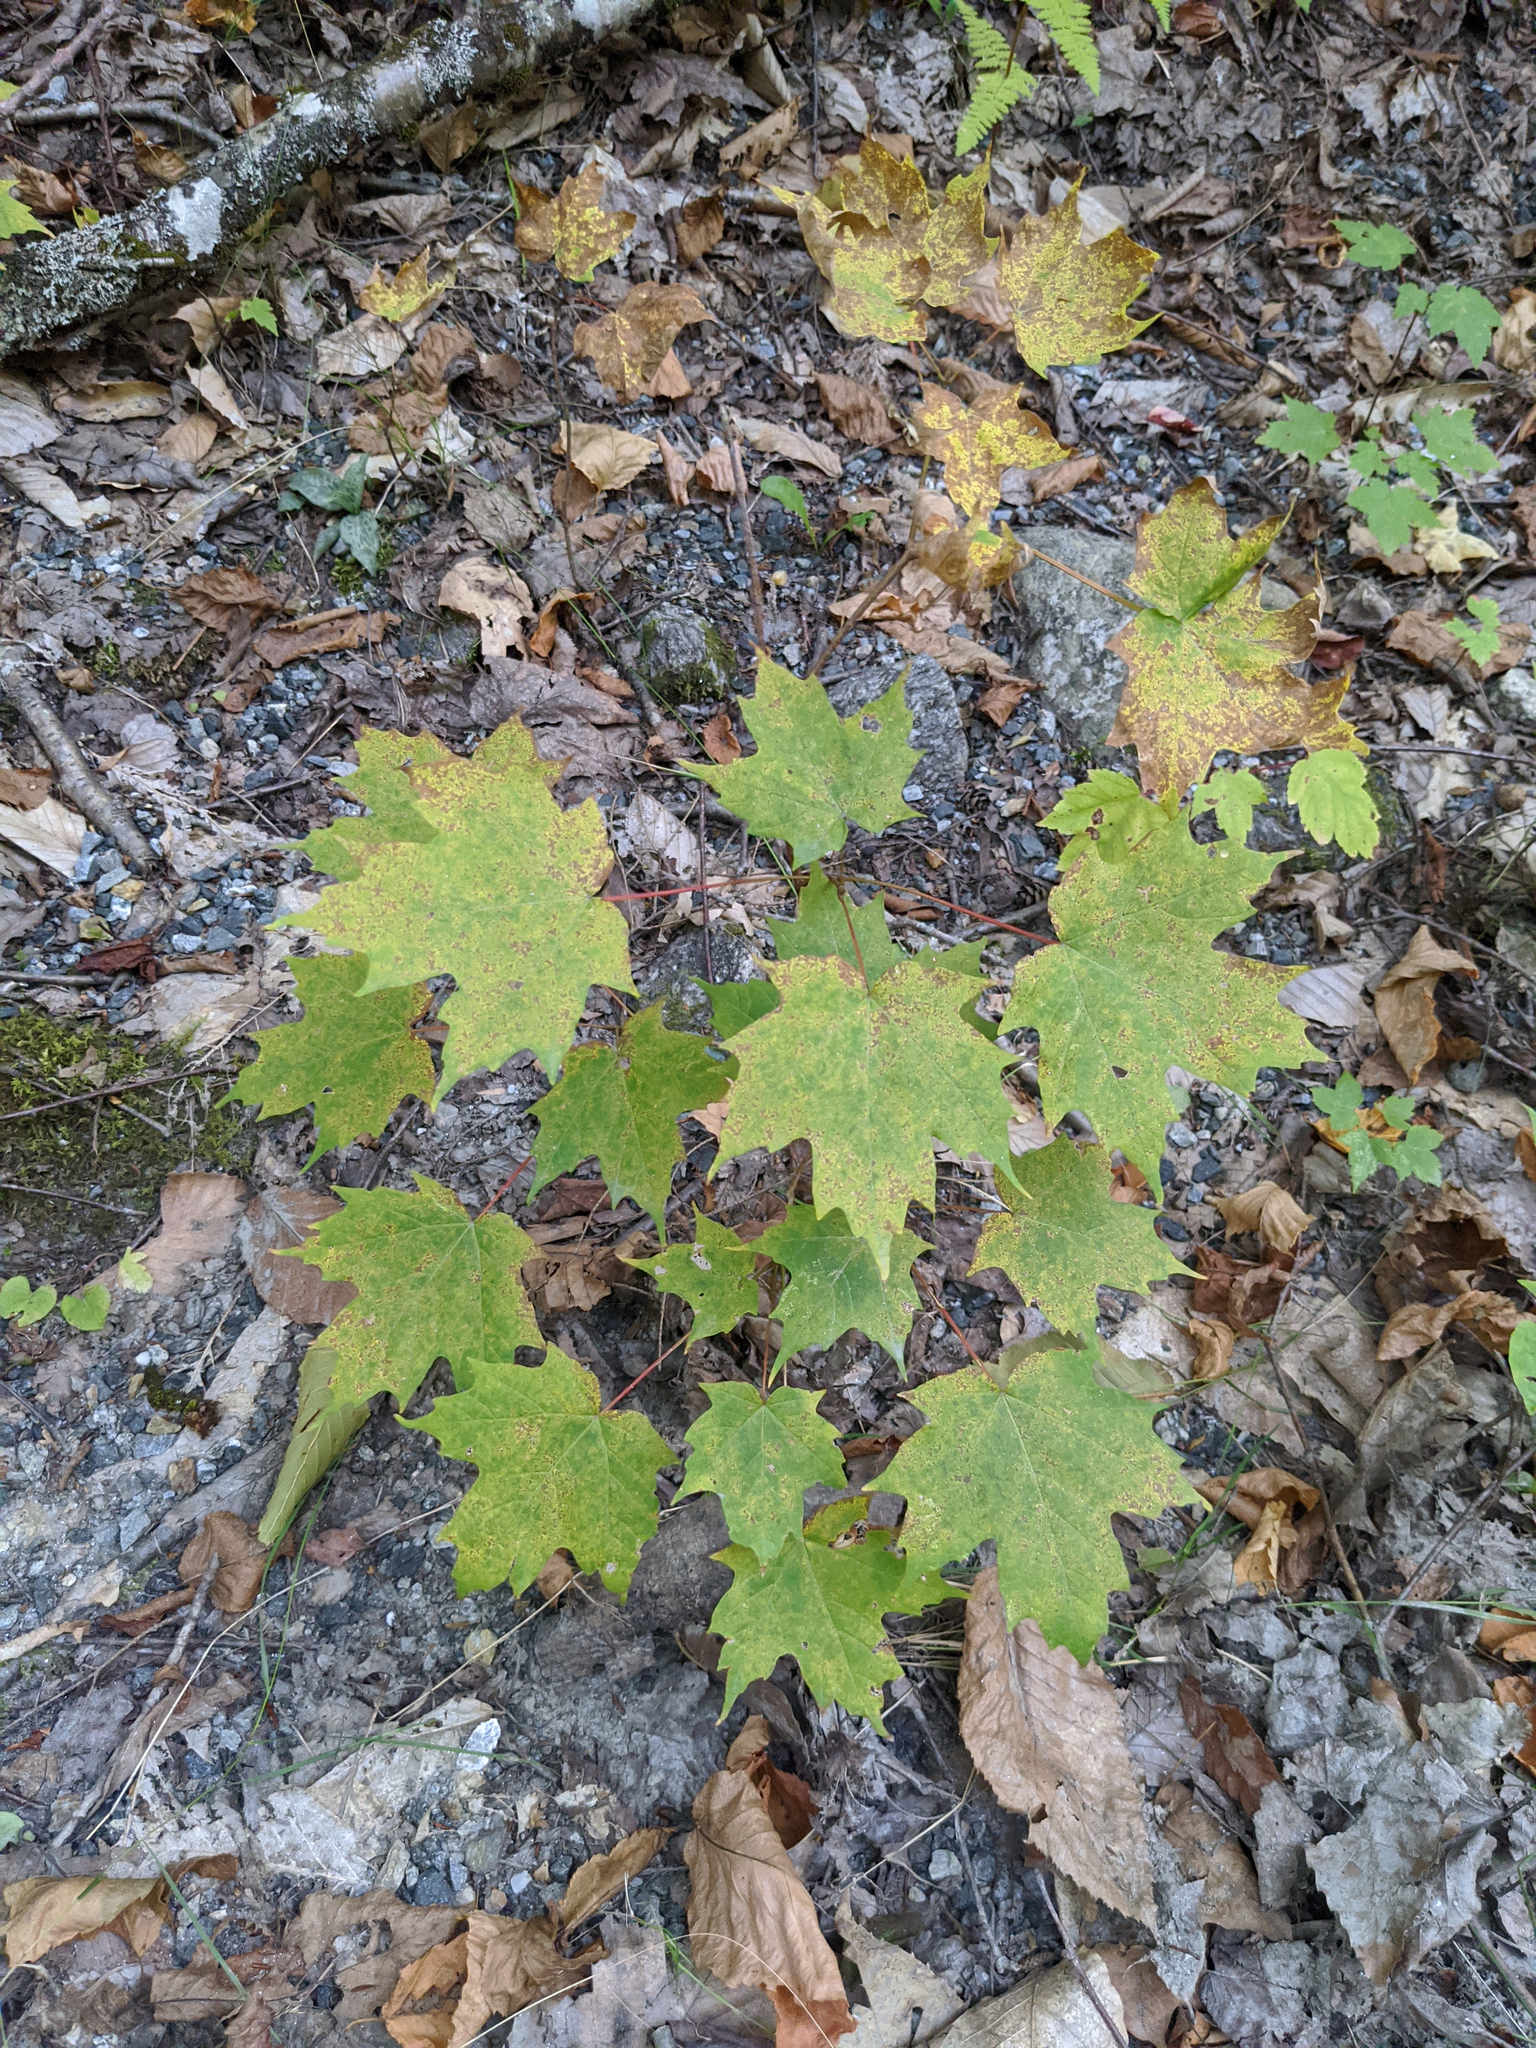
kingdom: Plantae
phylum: Tracheophyta
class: Magnoliopsida
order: Sapindales
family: Sapindaceae
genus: Acer
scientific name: Acer saccharum
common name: Sugar maple
